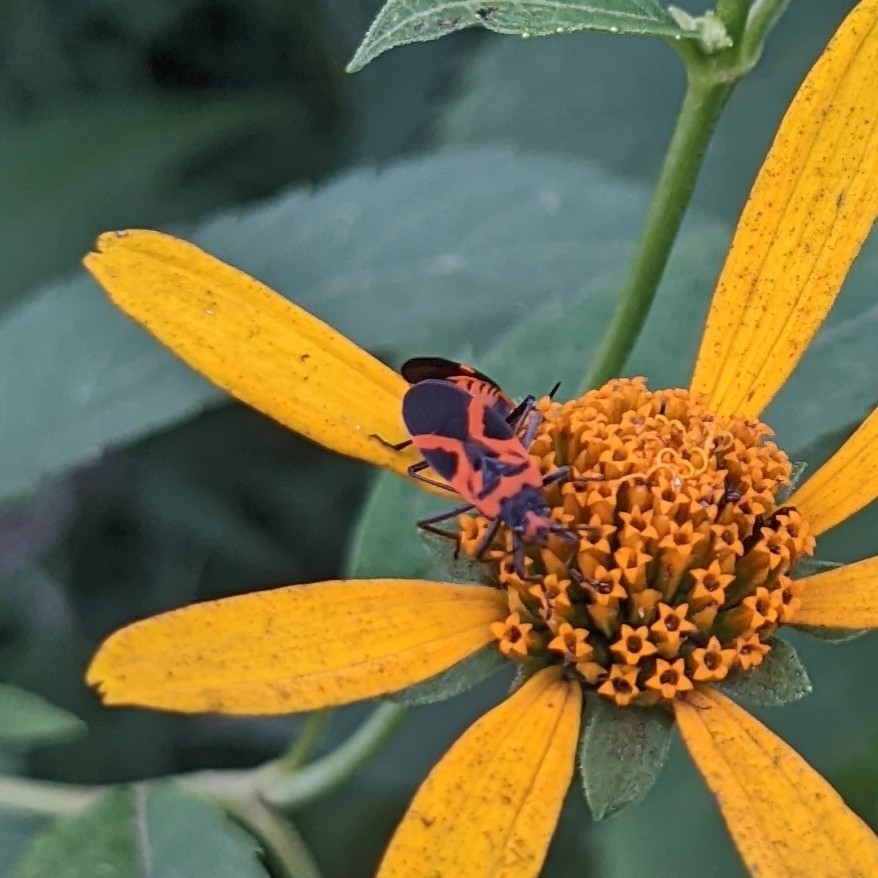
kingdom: Animalia
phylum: Arthropoda
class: Insecta
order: Hemiptera
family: Lygaeidae
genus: Lygaeus
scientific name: Lygaeus turcicus
